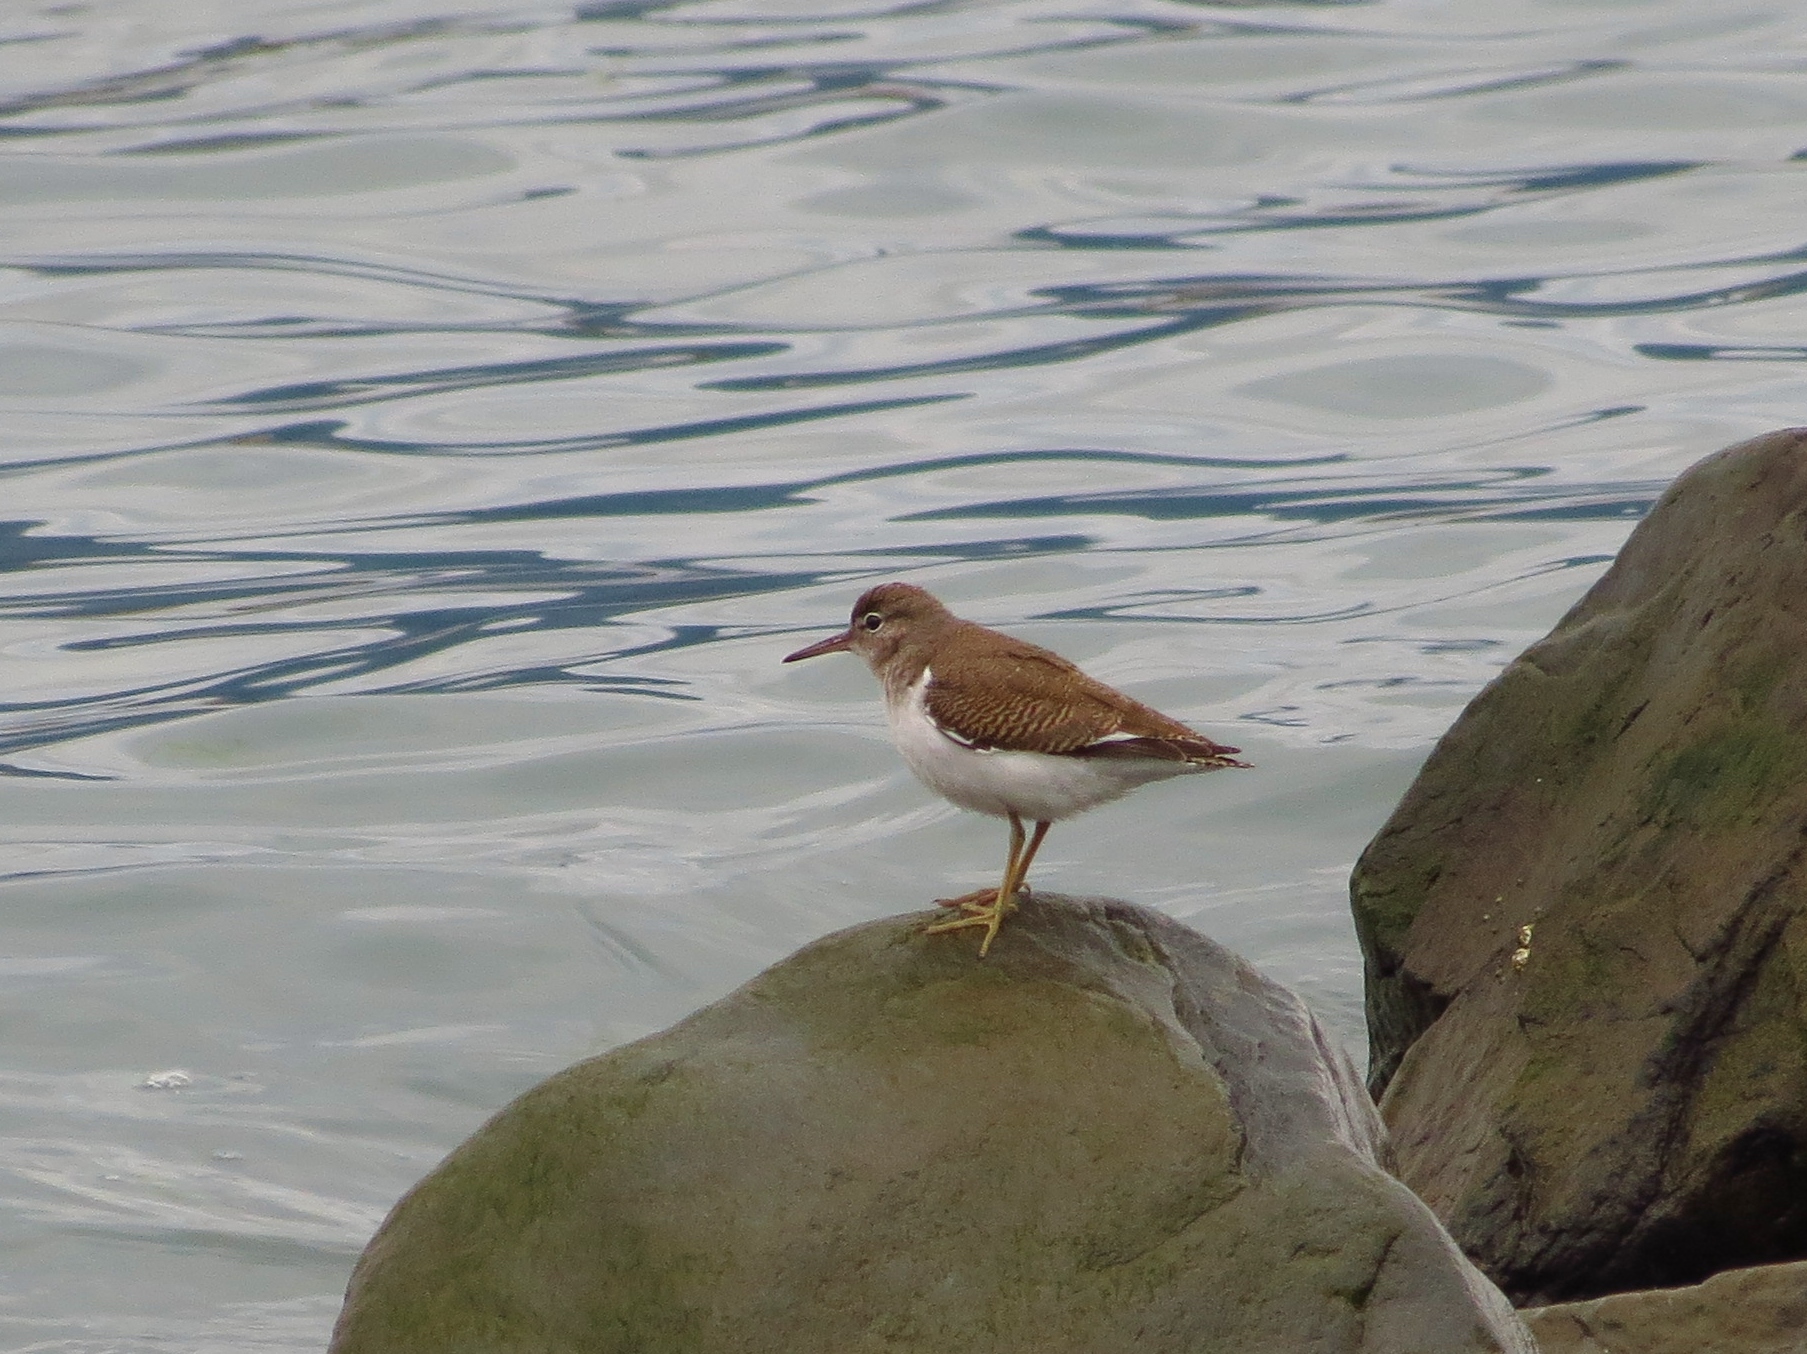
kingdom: Animalia
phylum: Chordata
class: Aves
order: Charadriiformes
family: Scolopacidae
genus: Actitis
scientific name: Actitis macularius
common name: Spotted sandpiper
